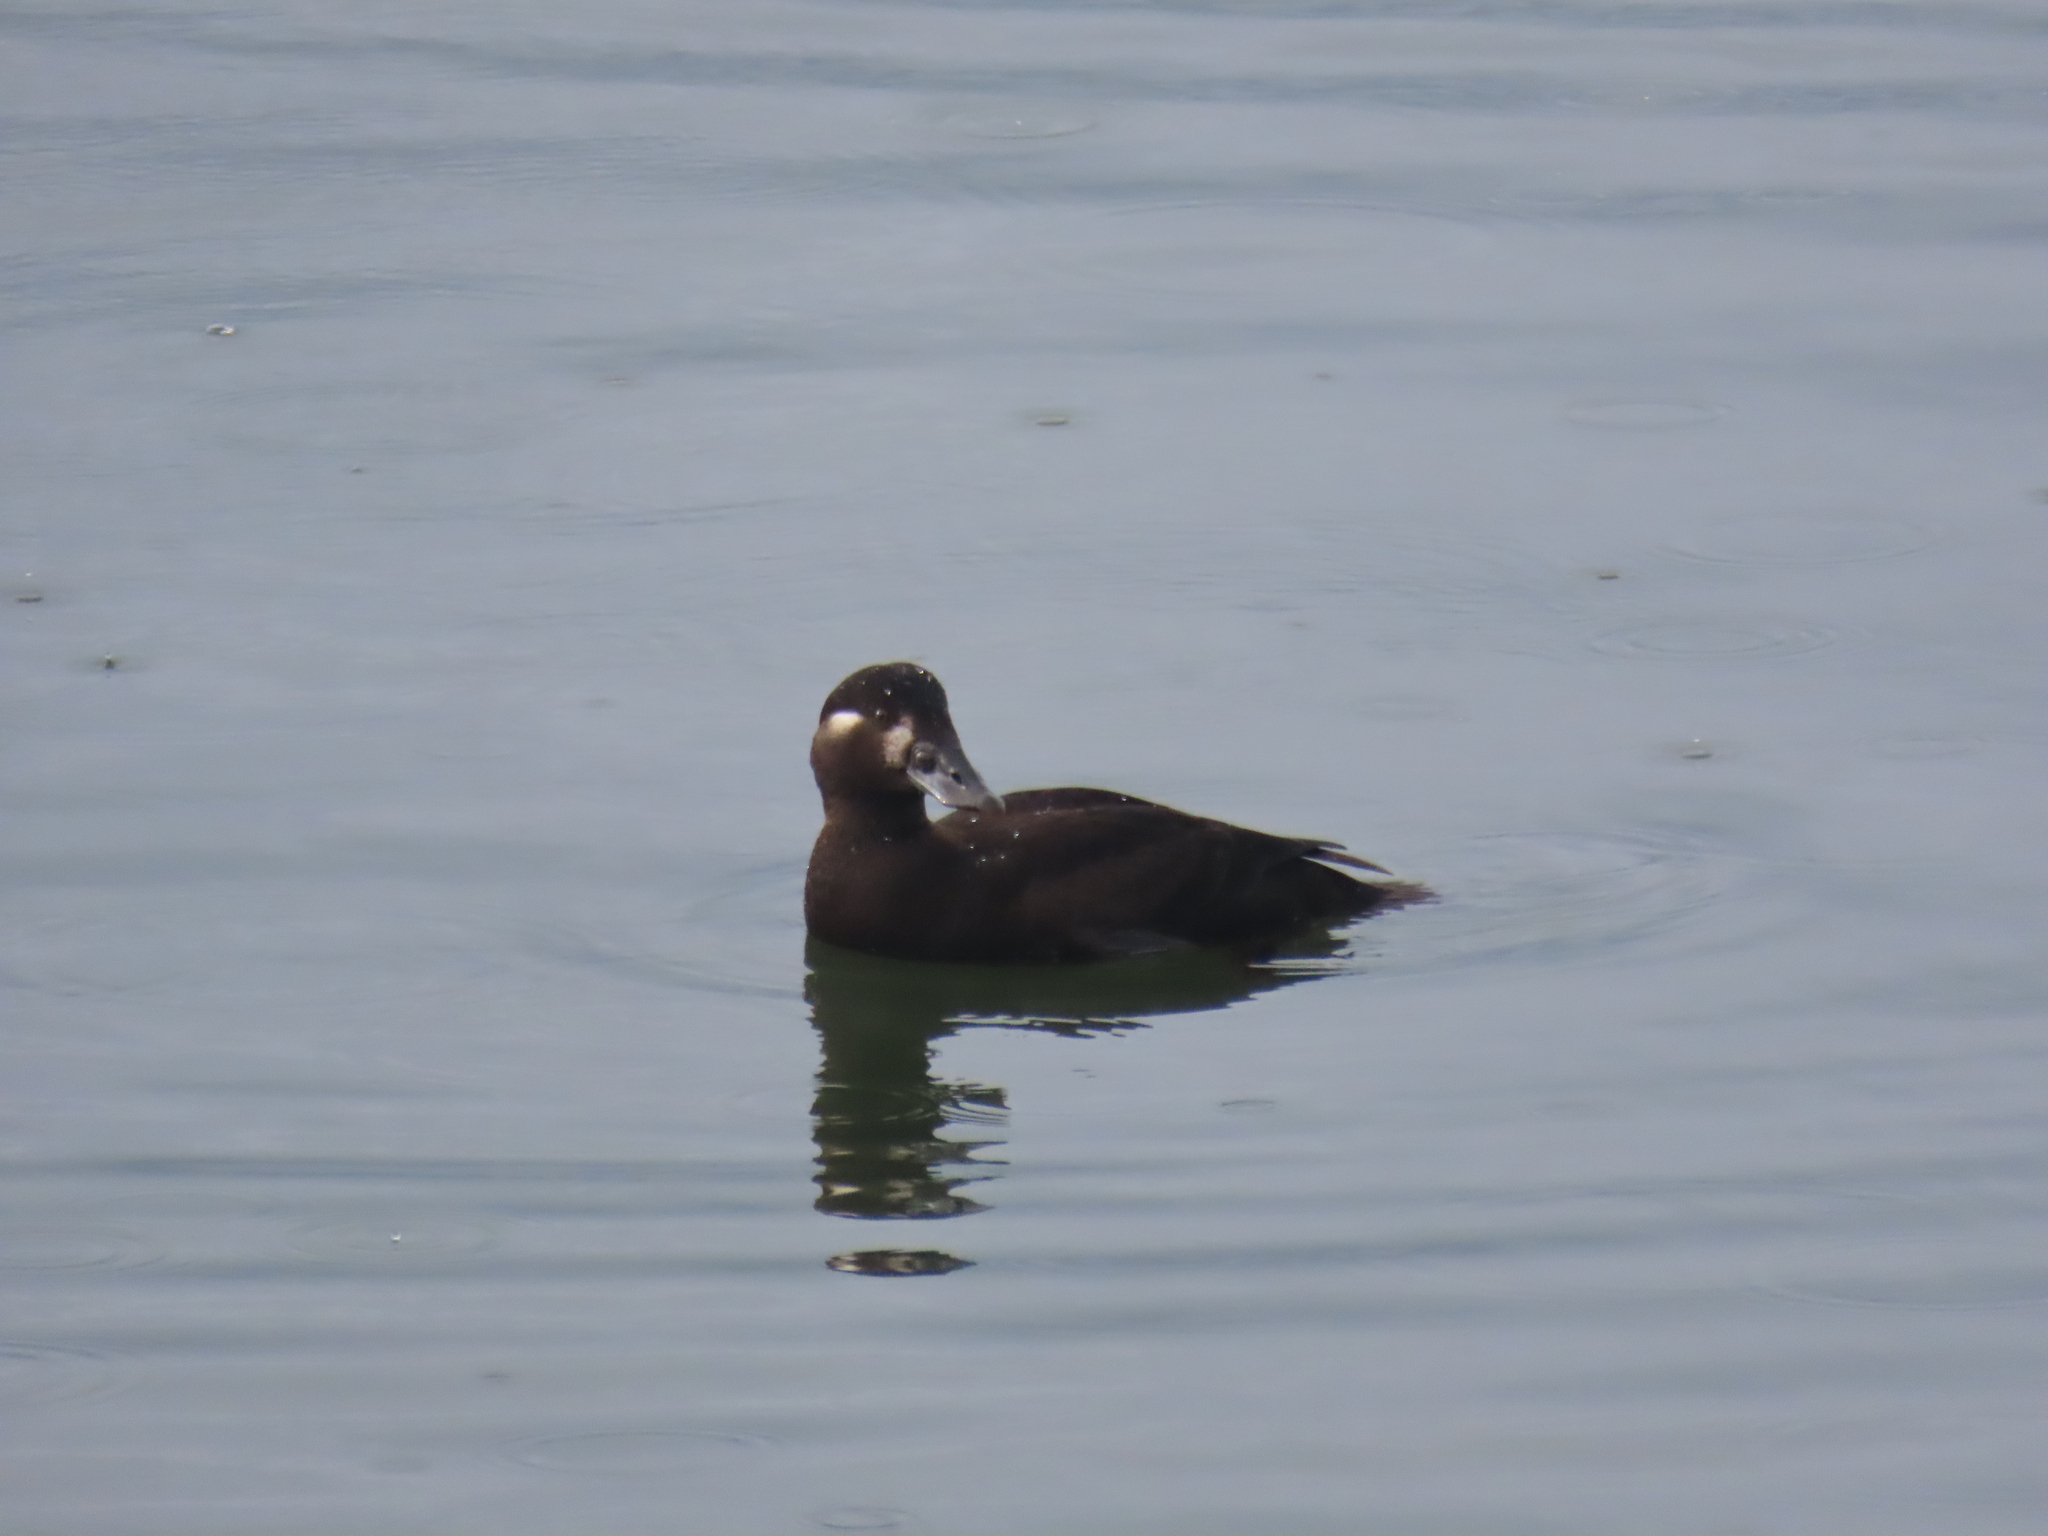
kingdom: Animalia
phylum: Chordata
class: Aves
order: Anseriformes
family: Anatidae
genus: Melanitta
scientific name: Melanitta perspicillata
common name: Surf scoter
